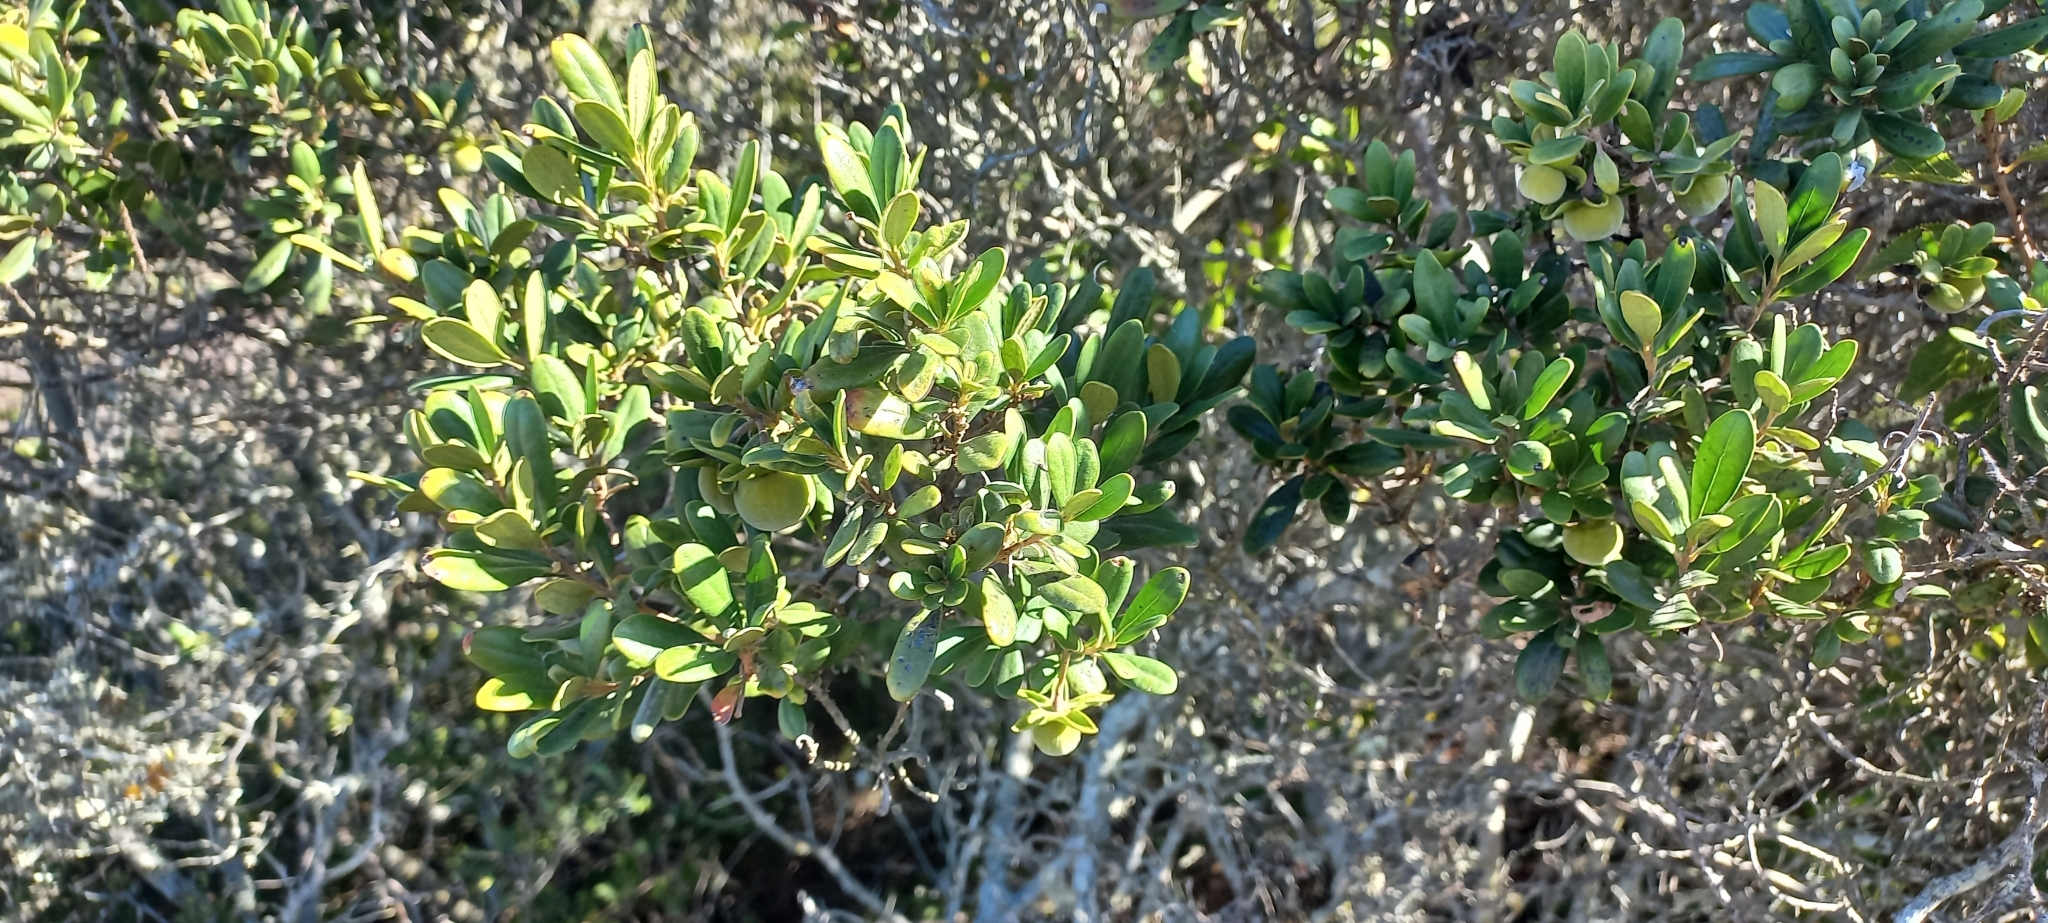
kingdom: Plantae
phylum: Tracheophyta
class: Magnoliopsida
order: Ericales
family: Ebenaceae
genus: Diospyros
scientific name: Diospyros dichrophylla
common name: Common star-apple
